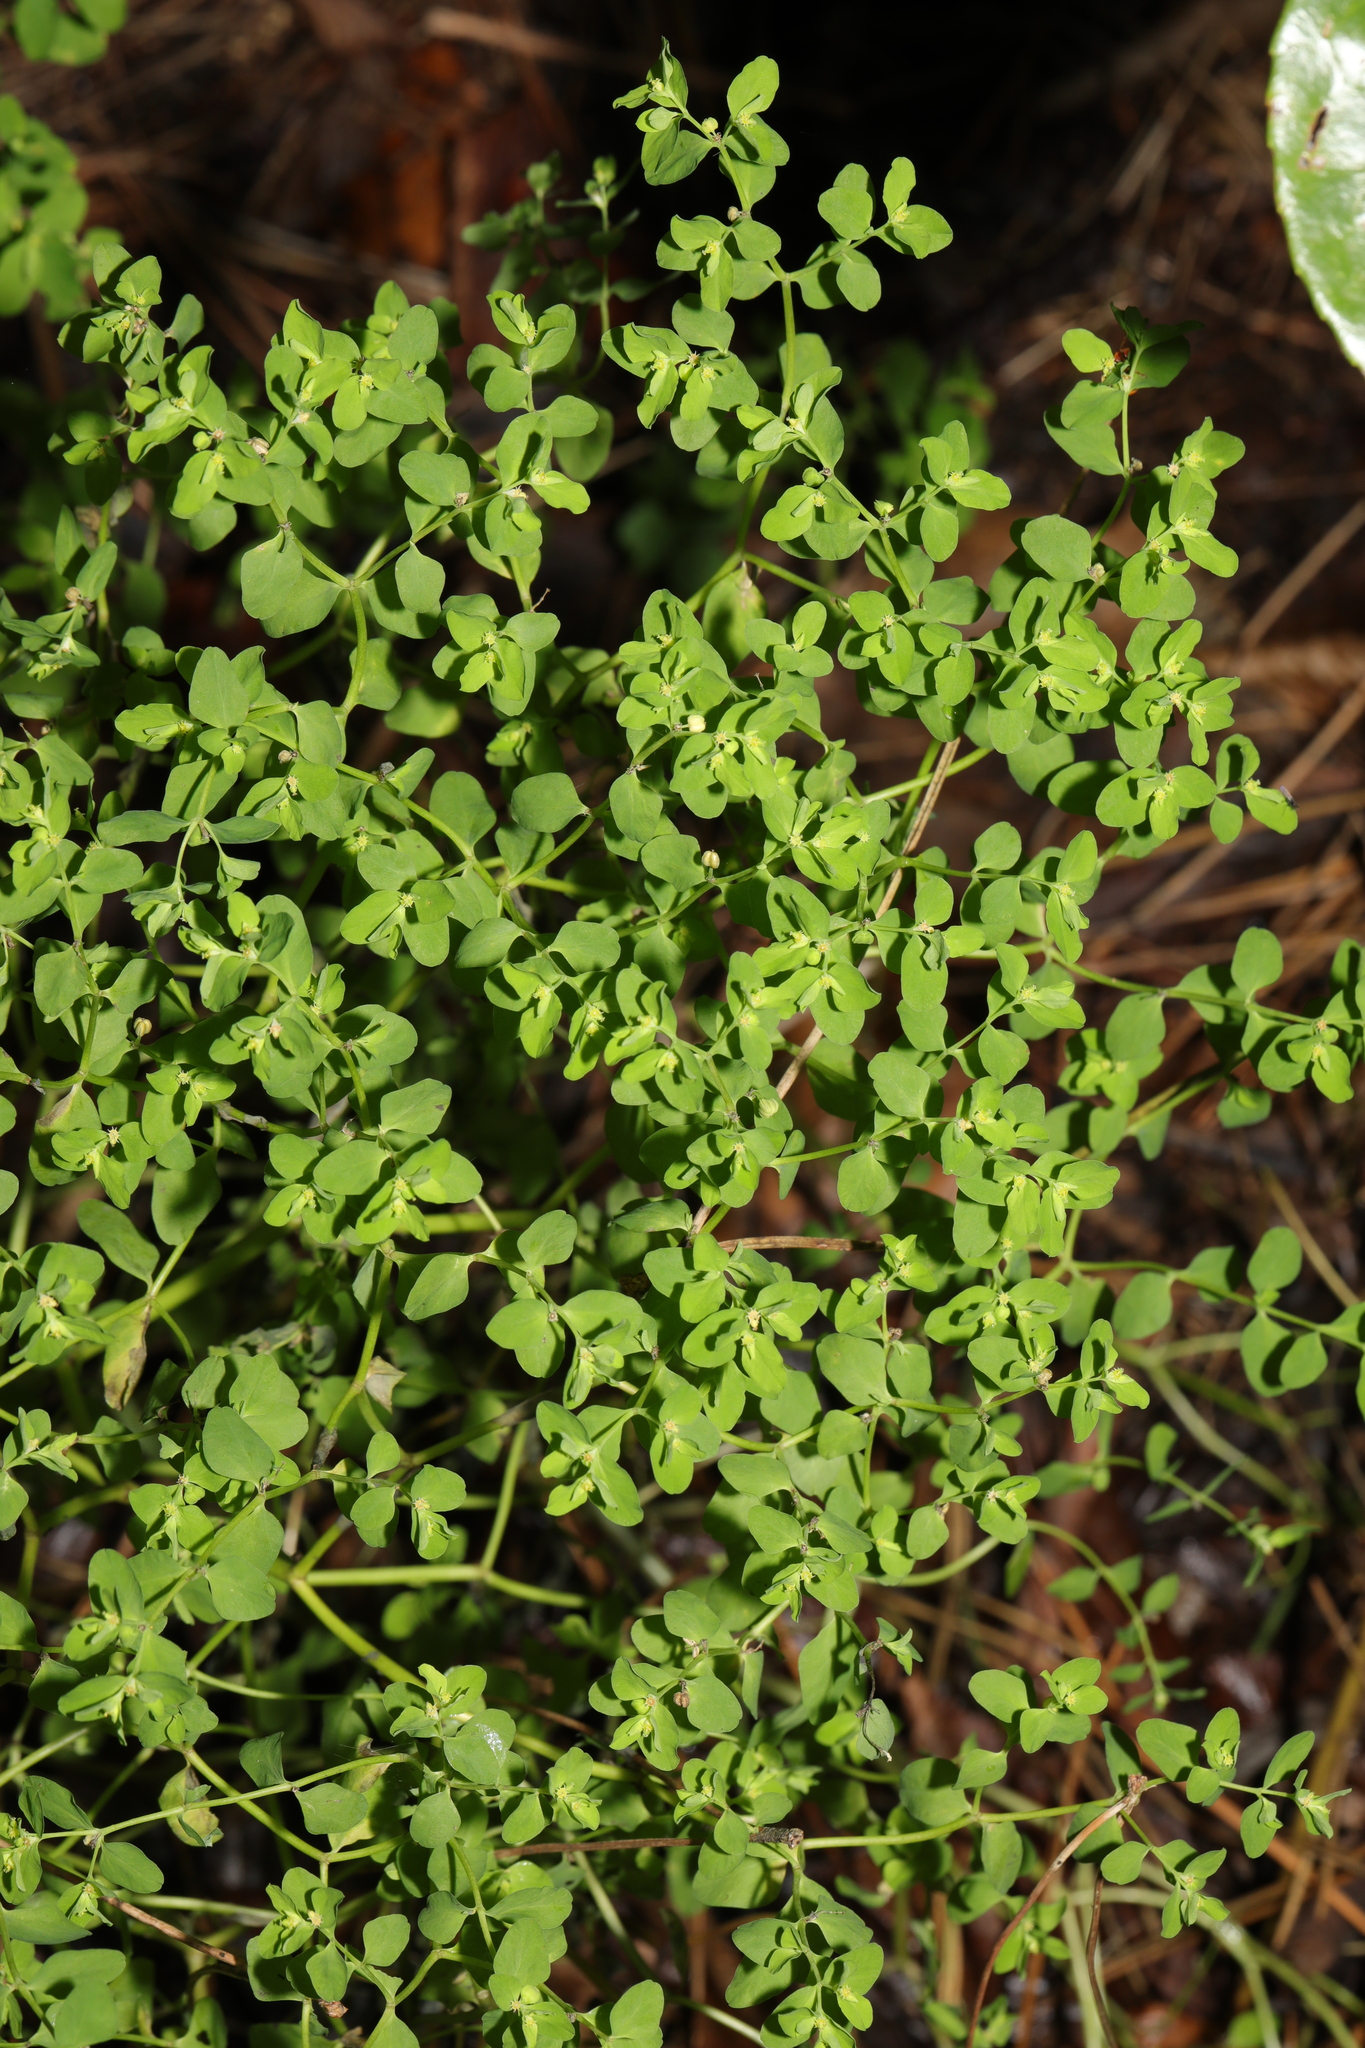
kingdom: Plantae
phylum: Tracheophyta
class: Magnoliopsida
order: Malpighiales
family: Euphorbiaceae
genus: Euphorbia
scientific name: Euphorbia peplus
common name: Petty spurge
